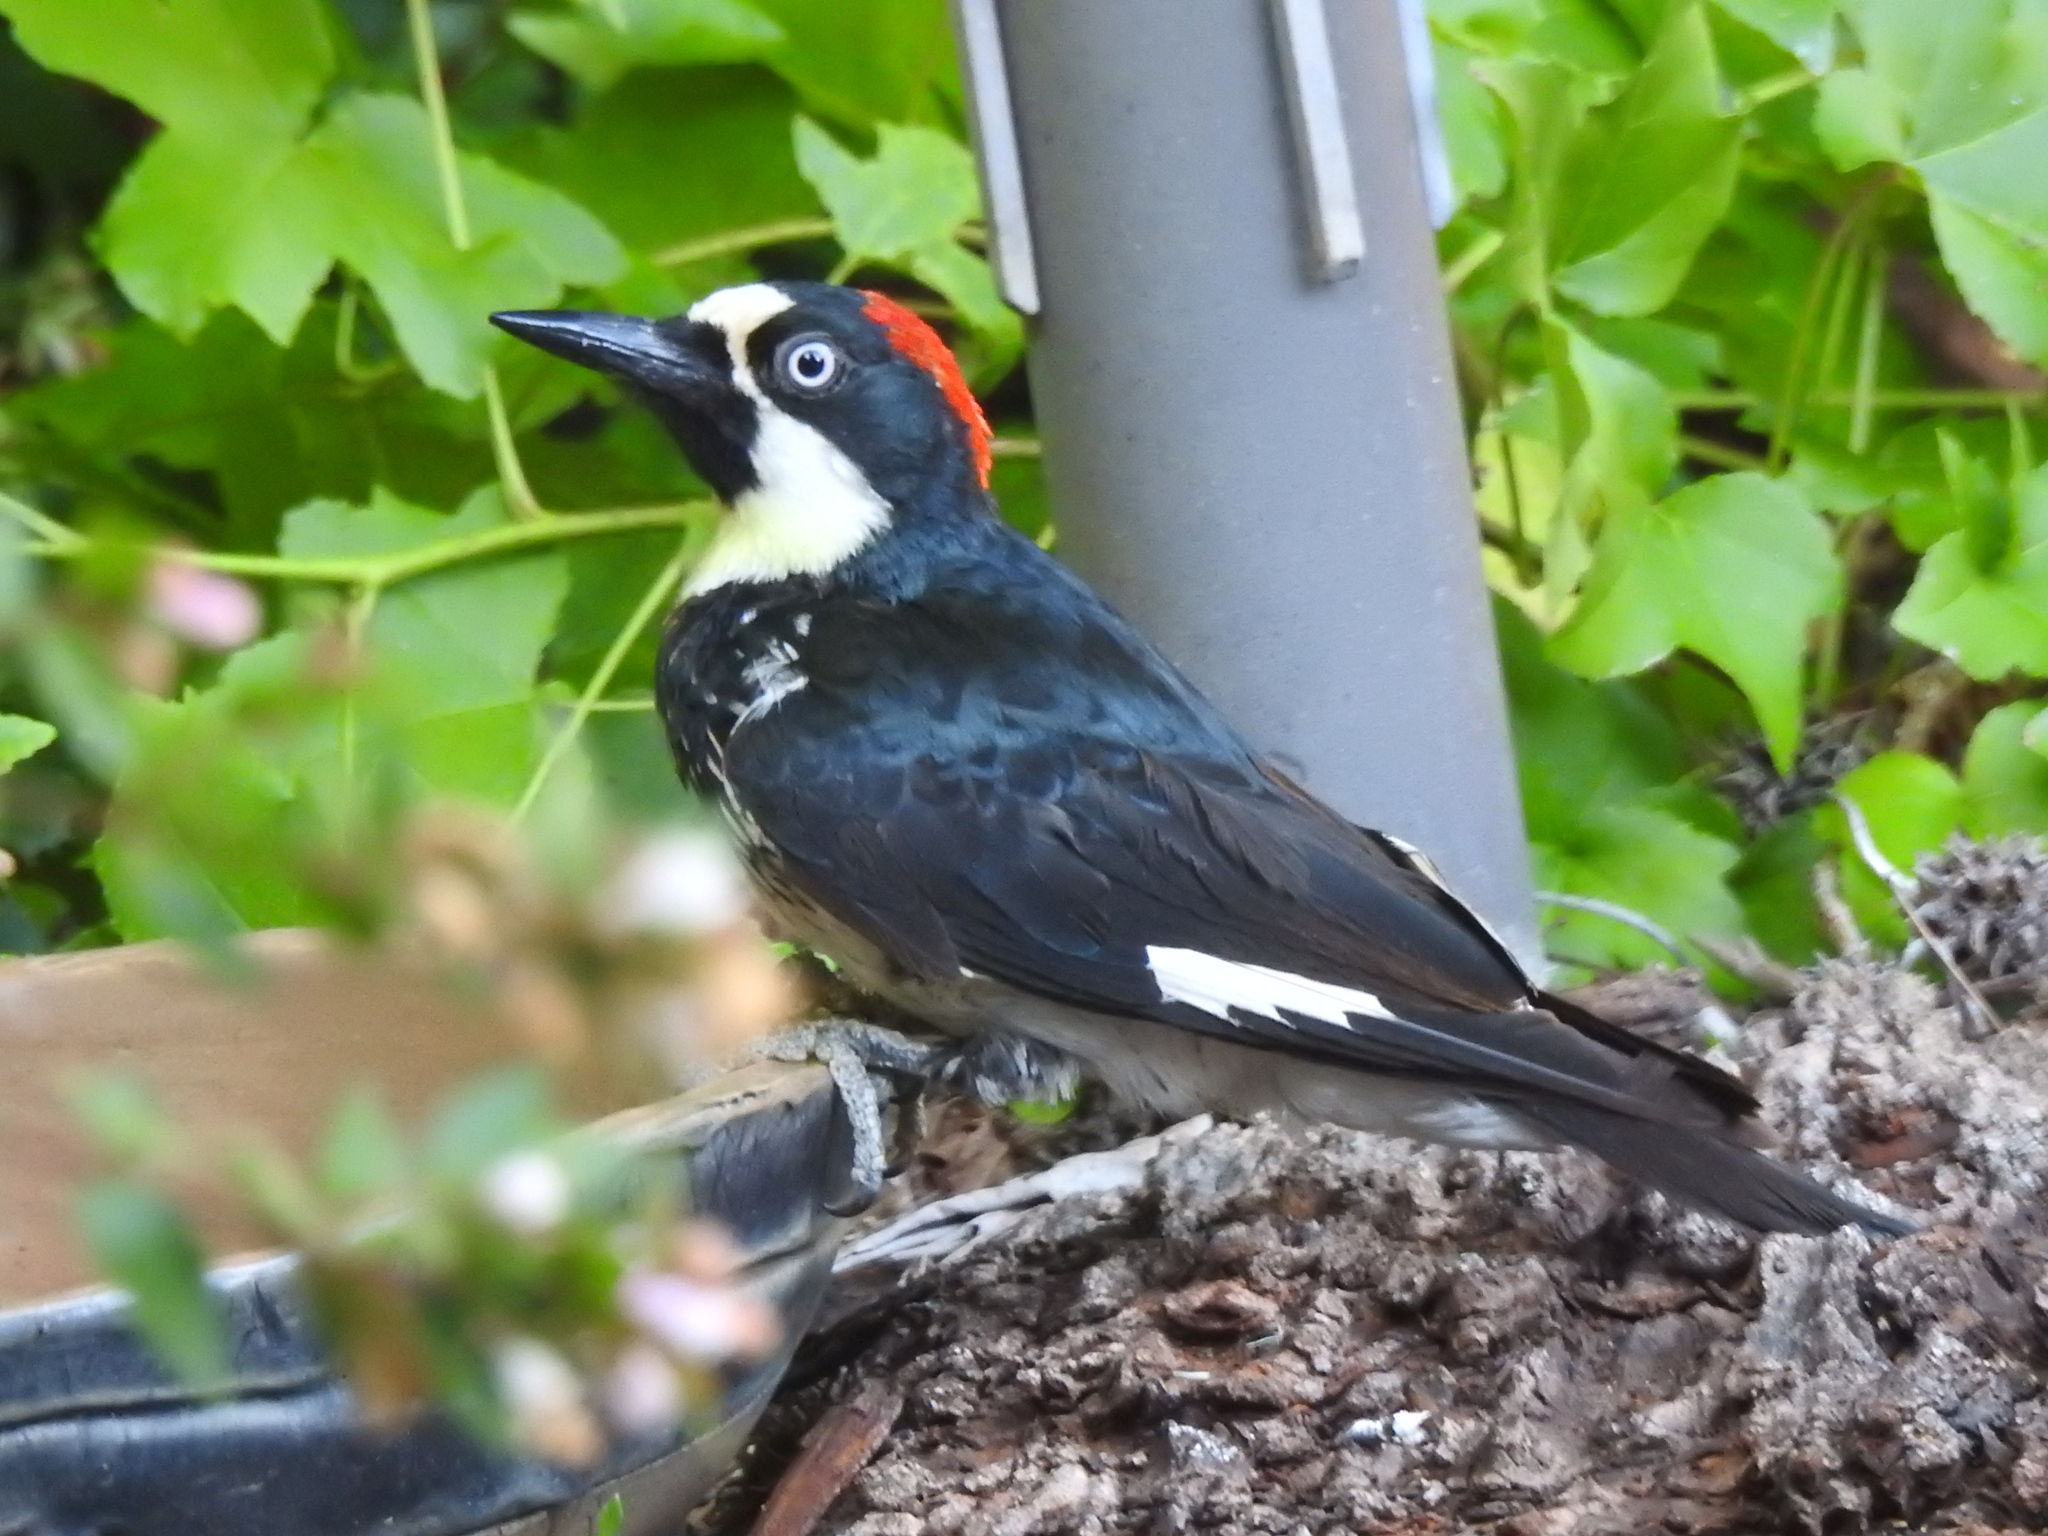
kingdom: Animalia
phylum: Chordata
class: Aves
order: Piciformes
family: Picidae
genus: Melanerpes
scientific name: Melanerpes formicivorus
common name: Acorn woodpecker
